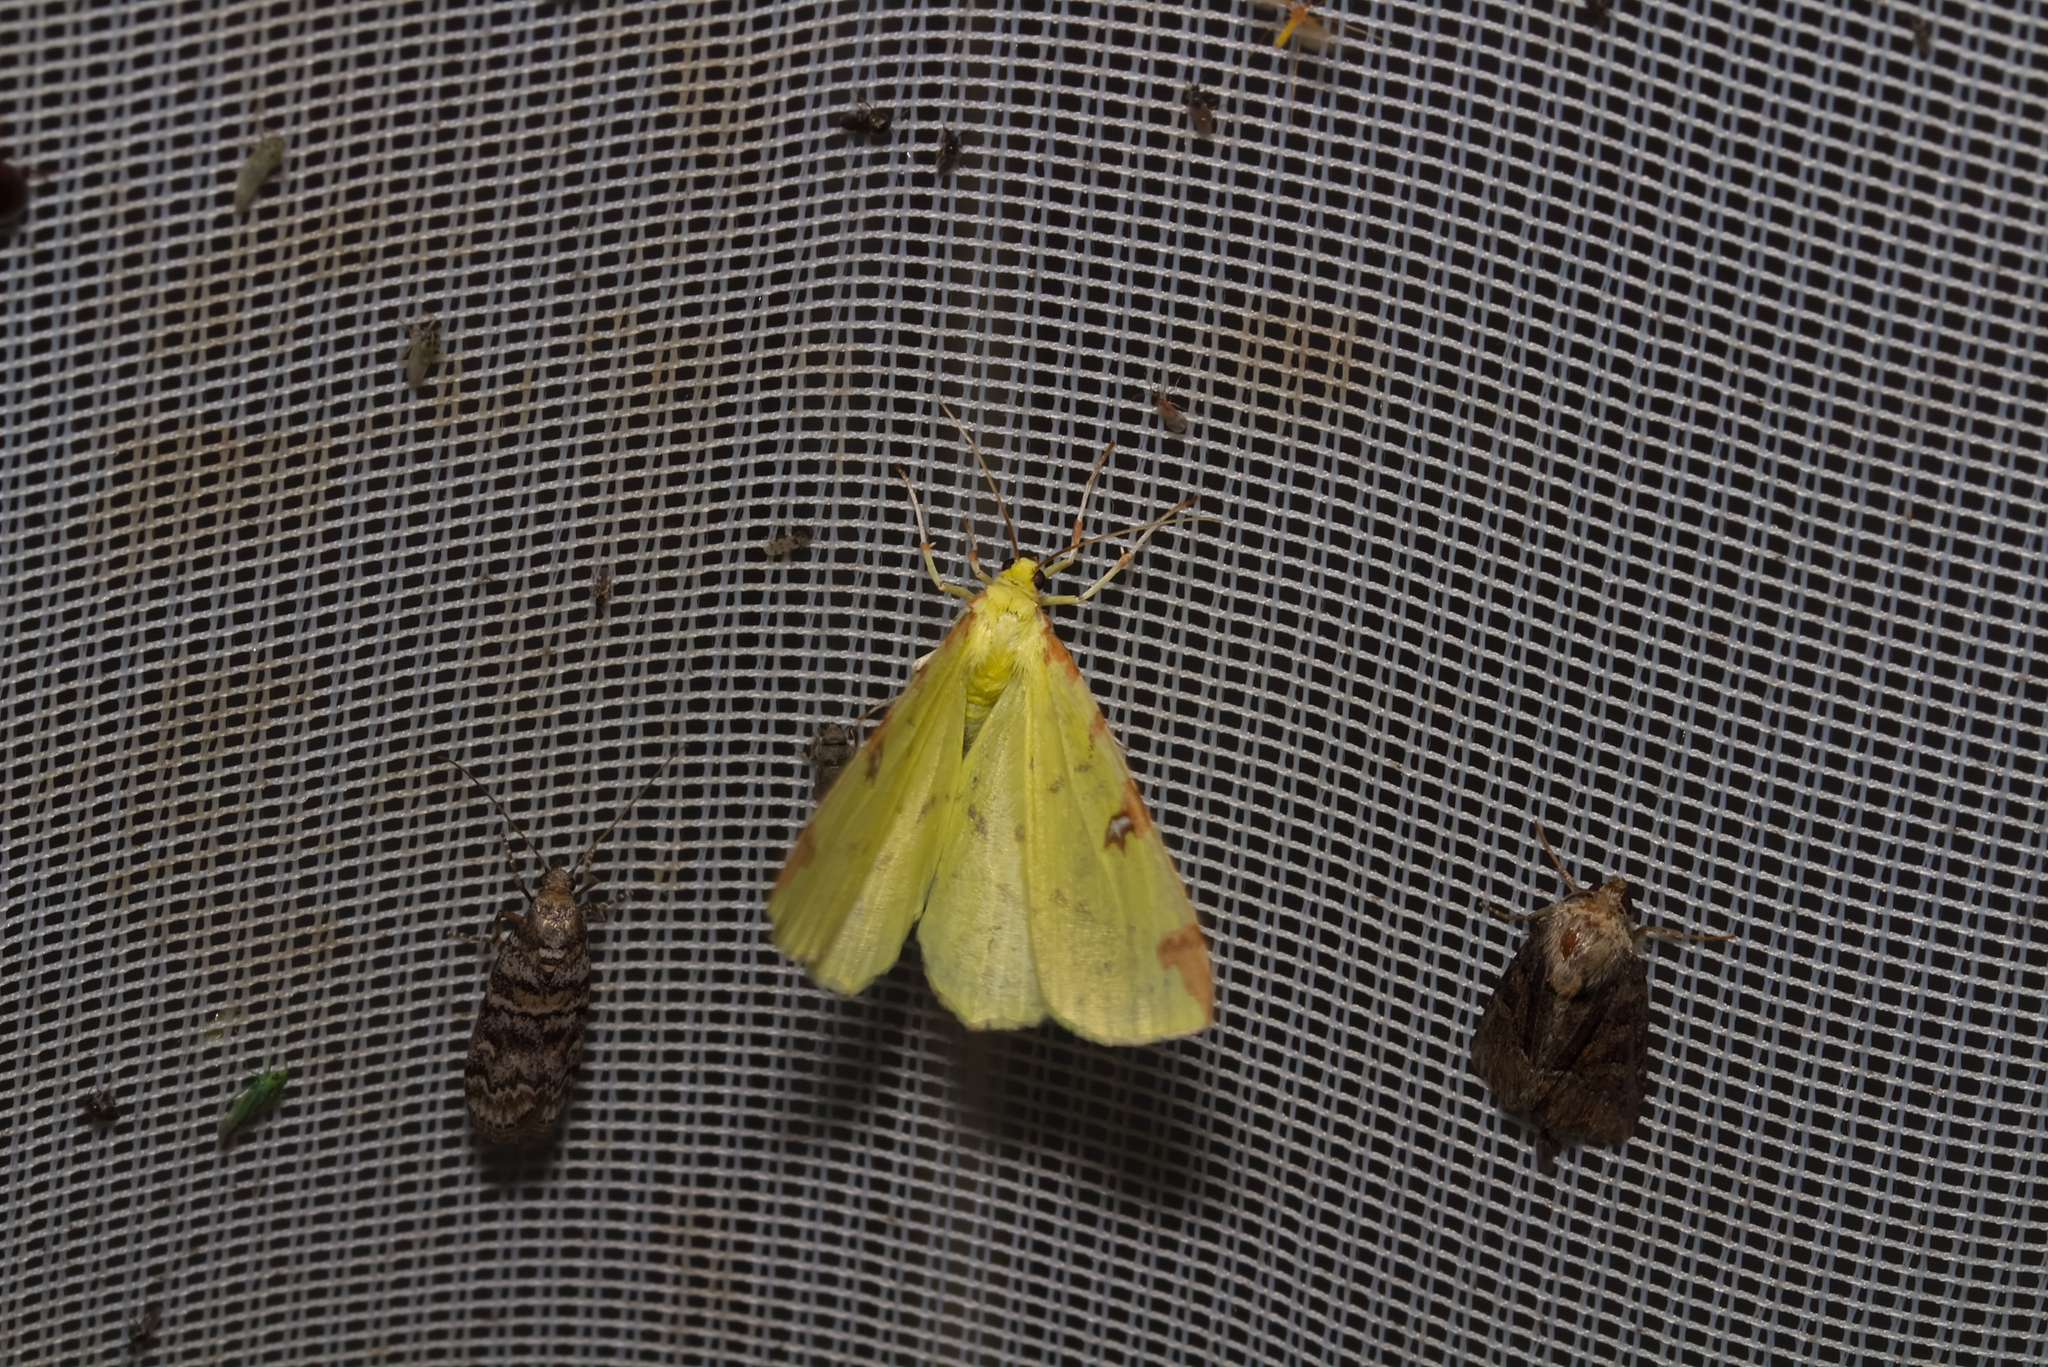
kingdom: Animalia
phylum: Arthropoda
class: Insecta
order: Lepidoptera
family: Geometridae
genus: Opisthograptis
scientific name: Opisthograptis luteolata
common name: Brimstone moth
